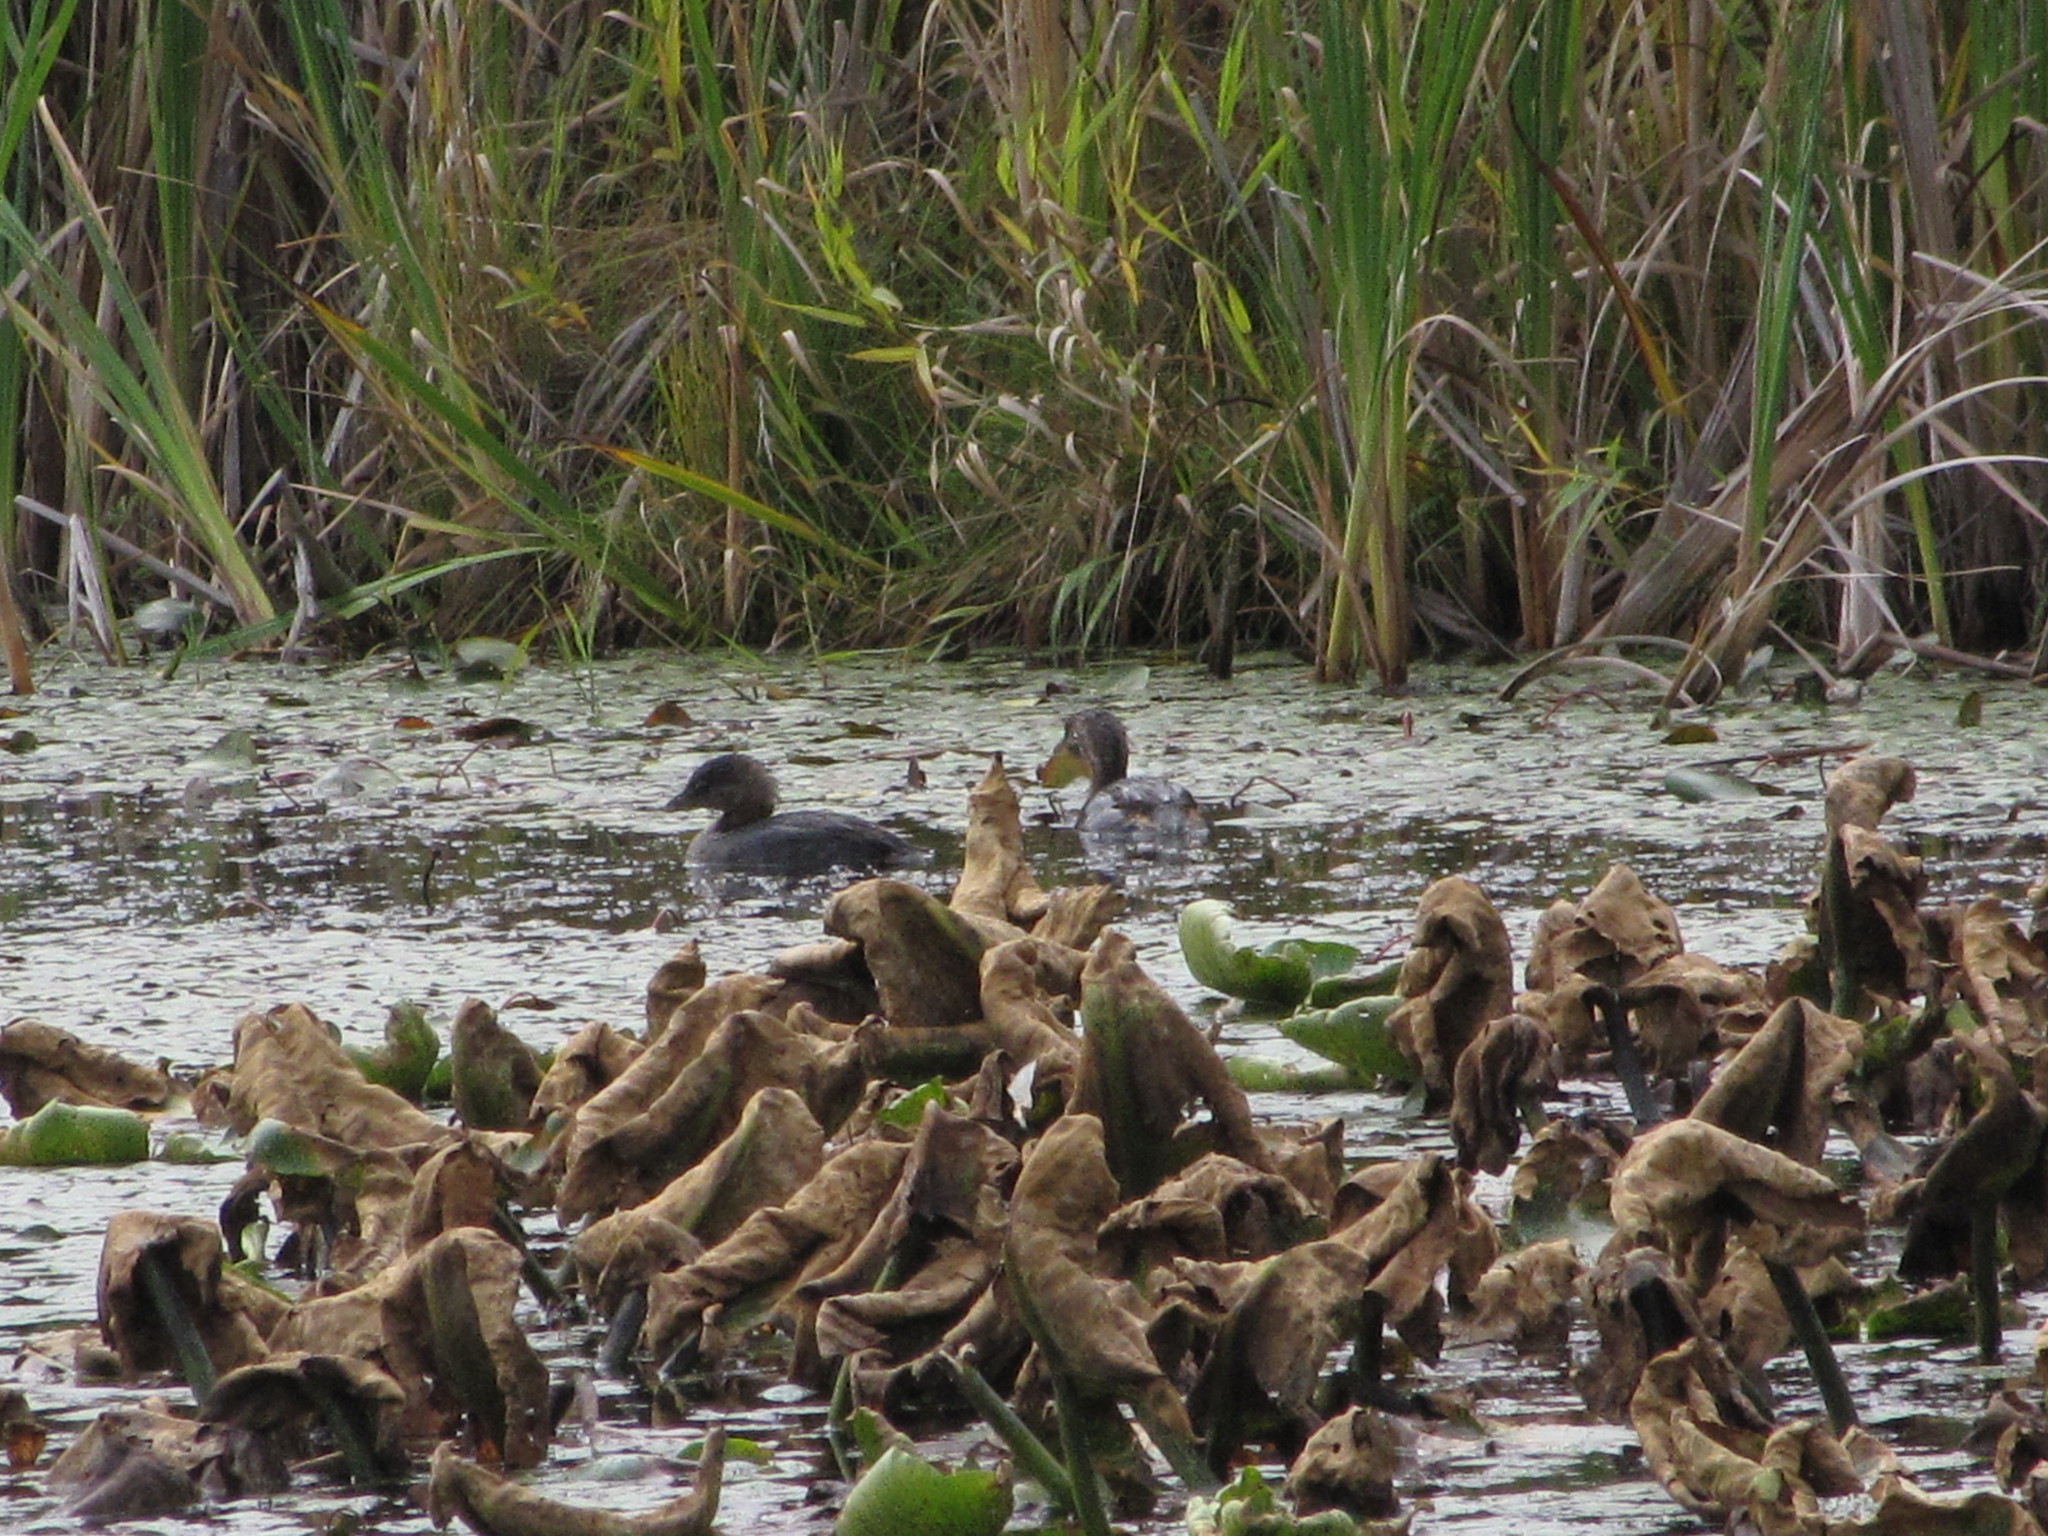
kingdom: Animalia
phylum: Chordata
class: Aves
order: Podicipediformes
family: Podicipedidae
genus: Podilymbus
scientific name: Podilymbus podiceps
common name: Pied-billed grebe
